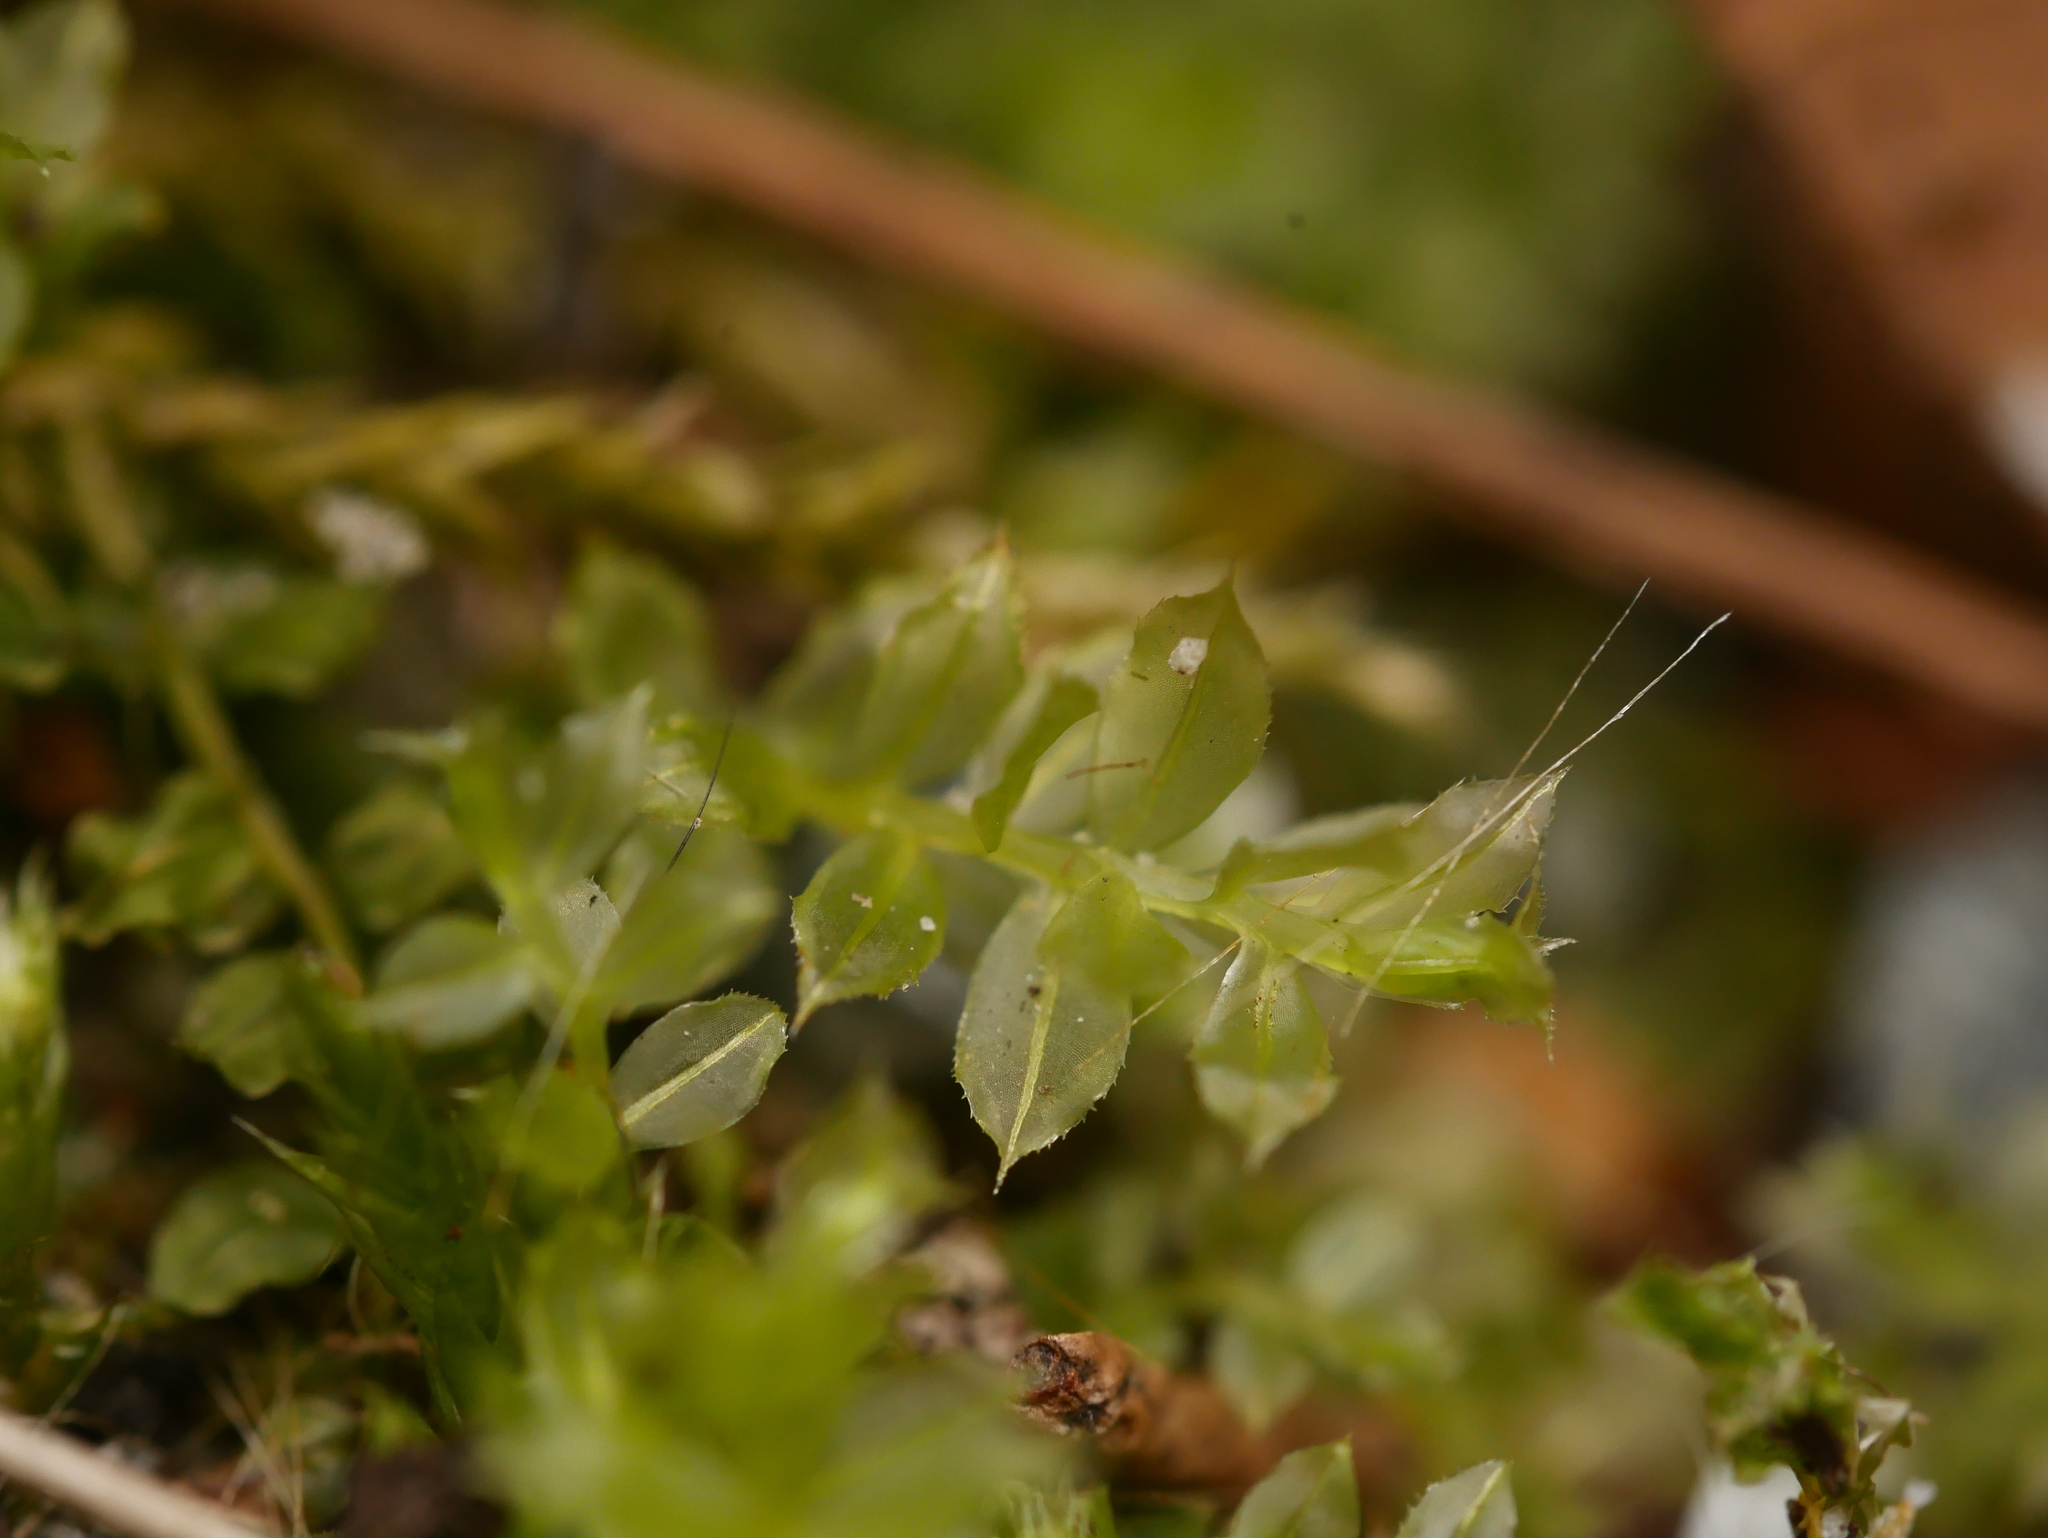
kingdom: Plantae
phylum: Bryophyta
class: Bryopsida
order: Bryales
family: Mniaceae
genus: Plagiomnium
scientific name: Plagiomnium cuspidatum
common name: Woodsy leafy moss
